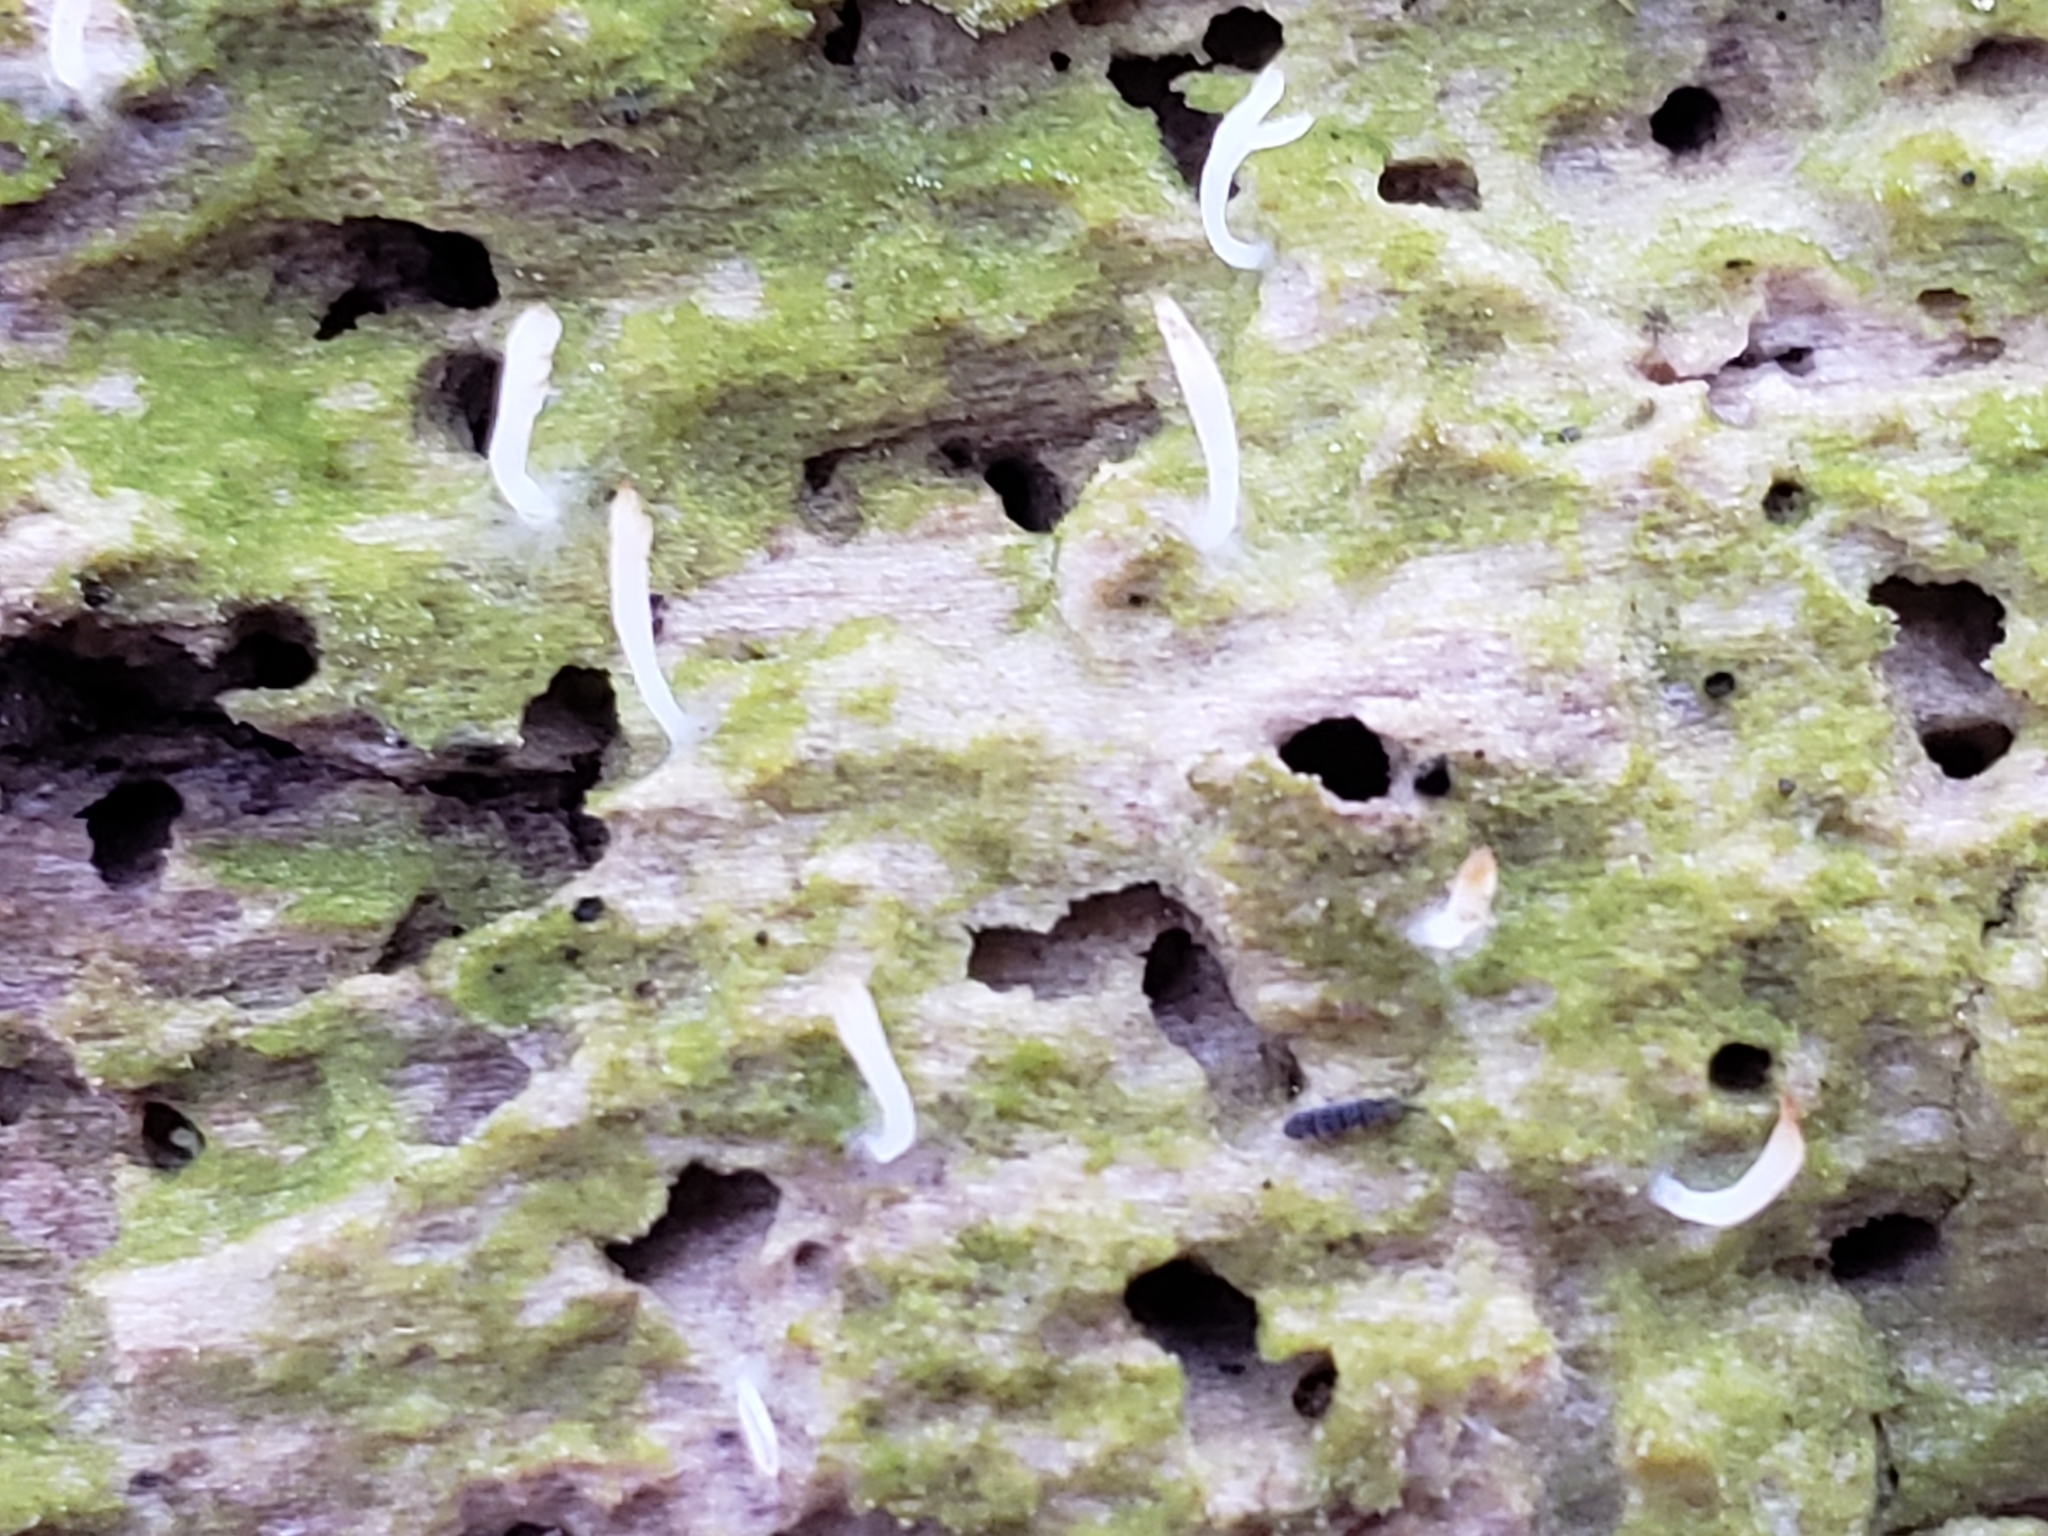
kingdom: Fungi
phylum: Basidiomycota
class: Agaricomycetes
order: Cantharellales
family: Hydnaceae
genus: Multiclavula
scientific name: Multiclavula mucida
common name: White green-algae coral
